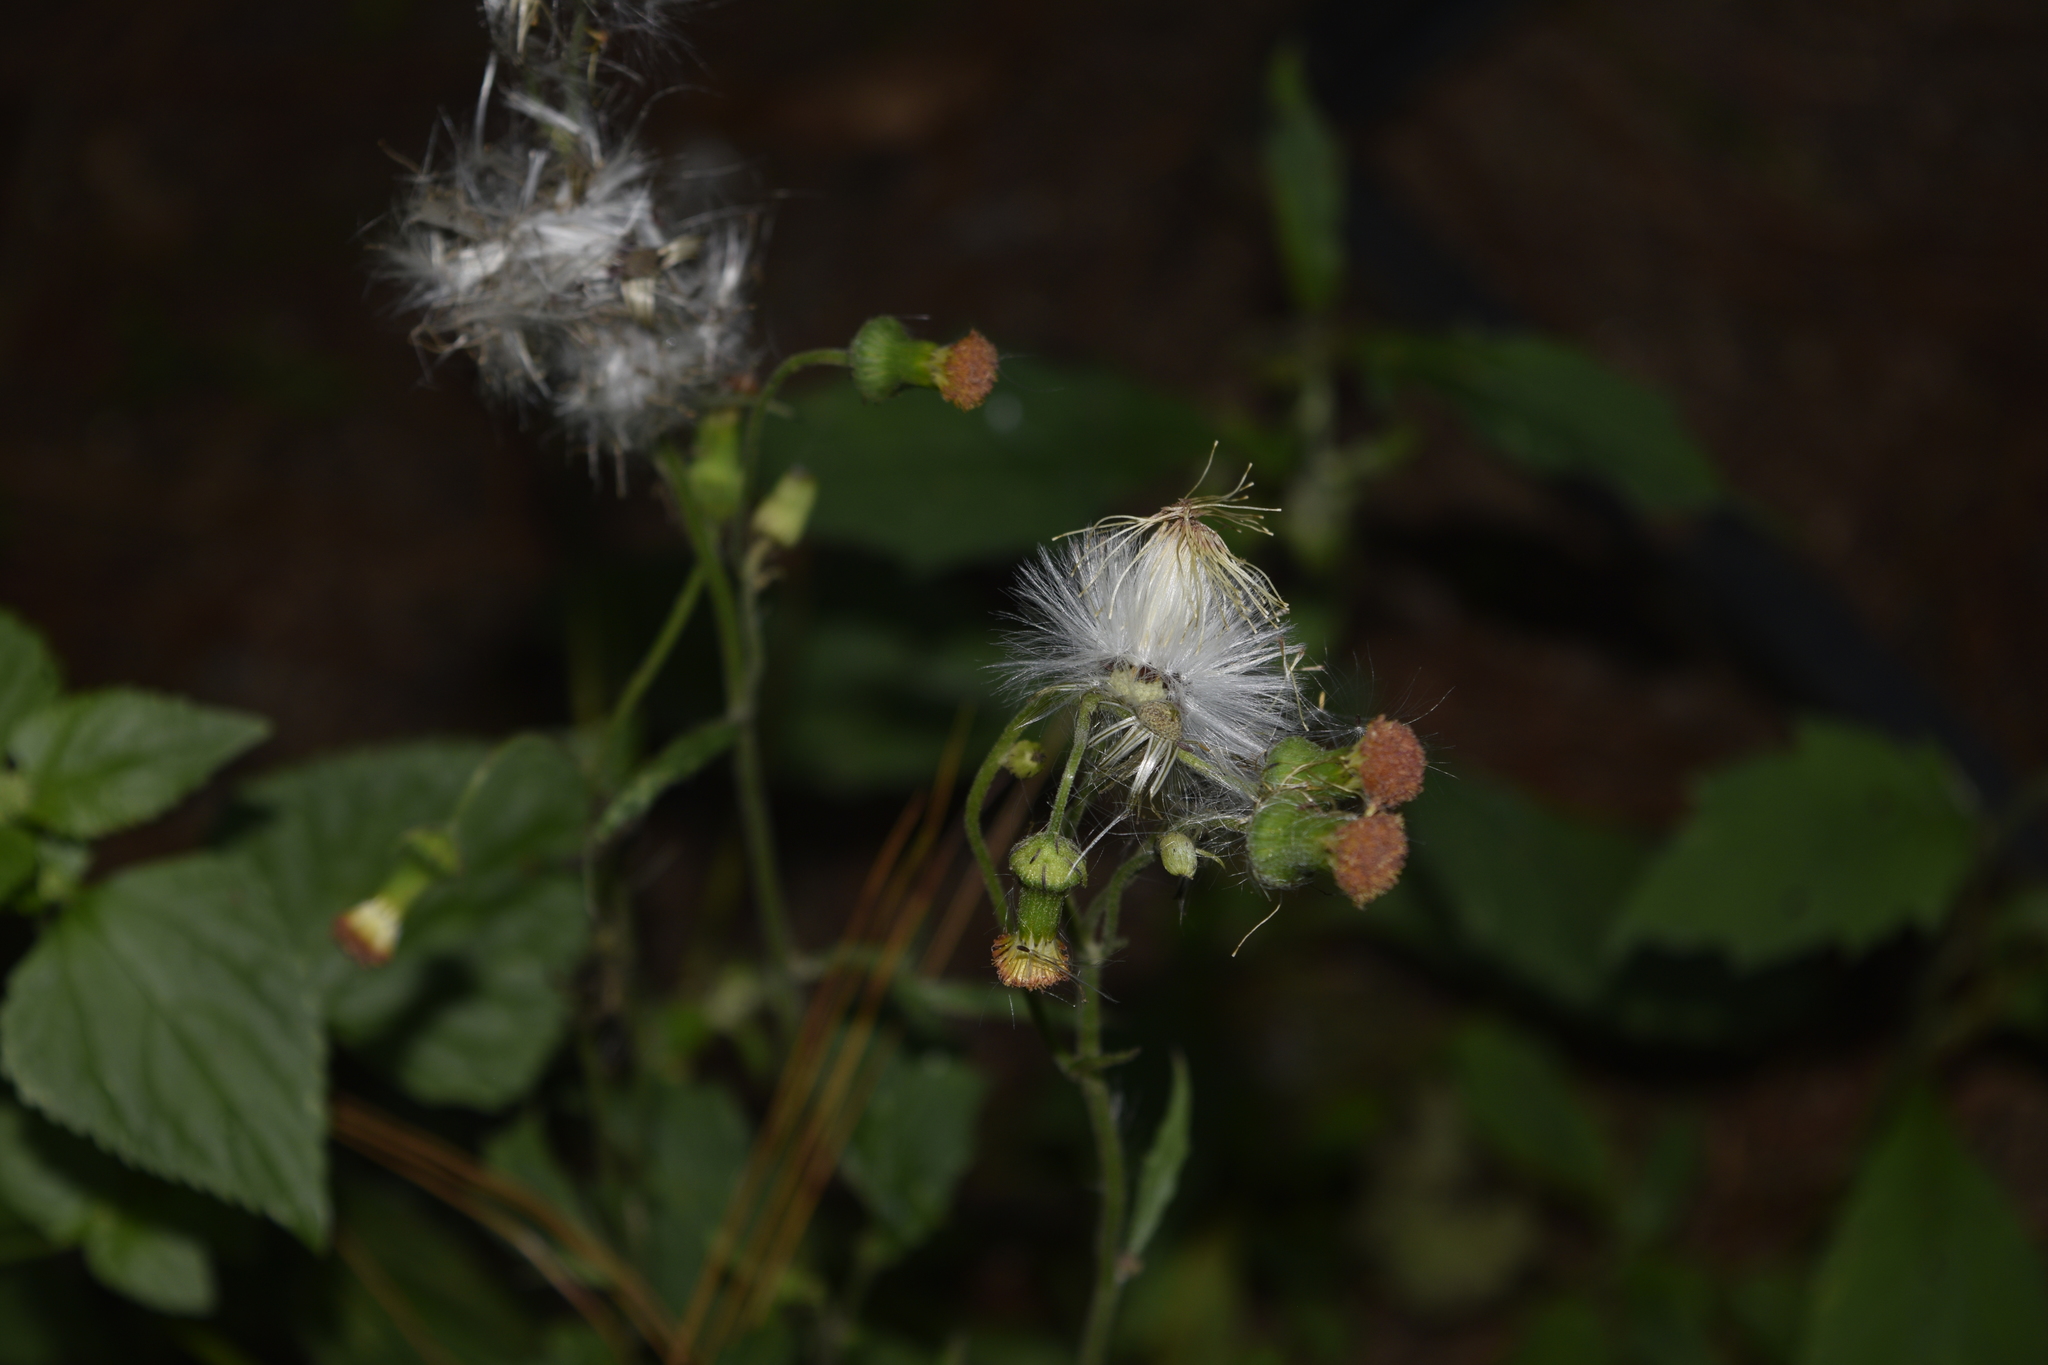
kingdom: Plantae
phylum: Tracheophyta
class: Magnoliopsida
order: Asterales
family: Asteraceae
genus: Crassocephalum
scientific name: Crassocephalum crepidioides
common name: Redflower ragleaf
